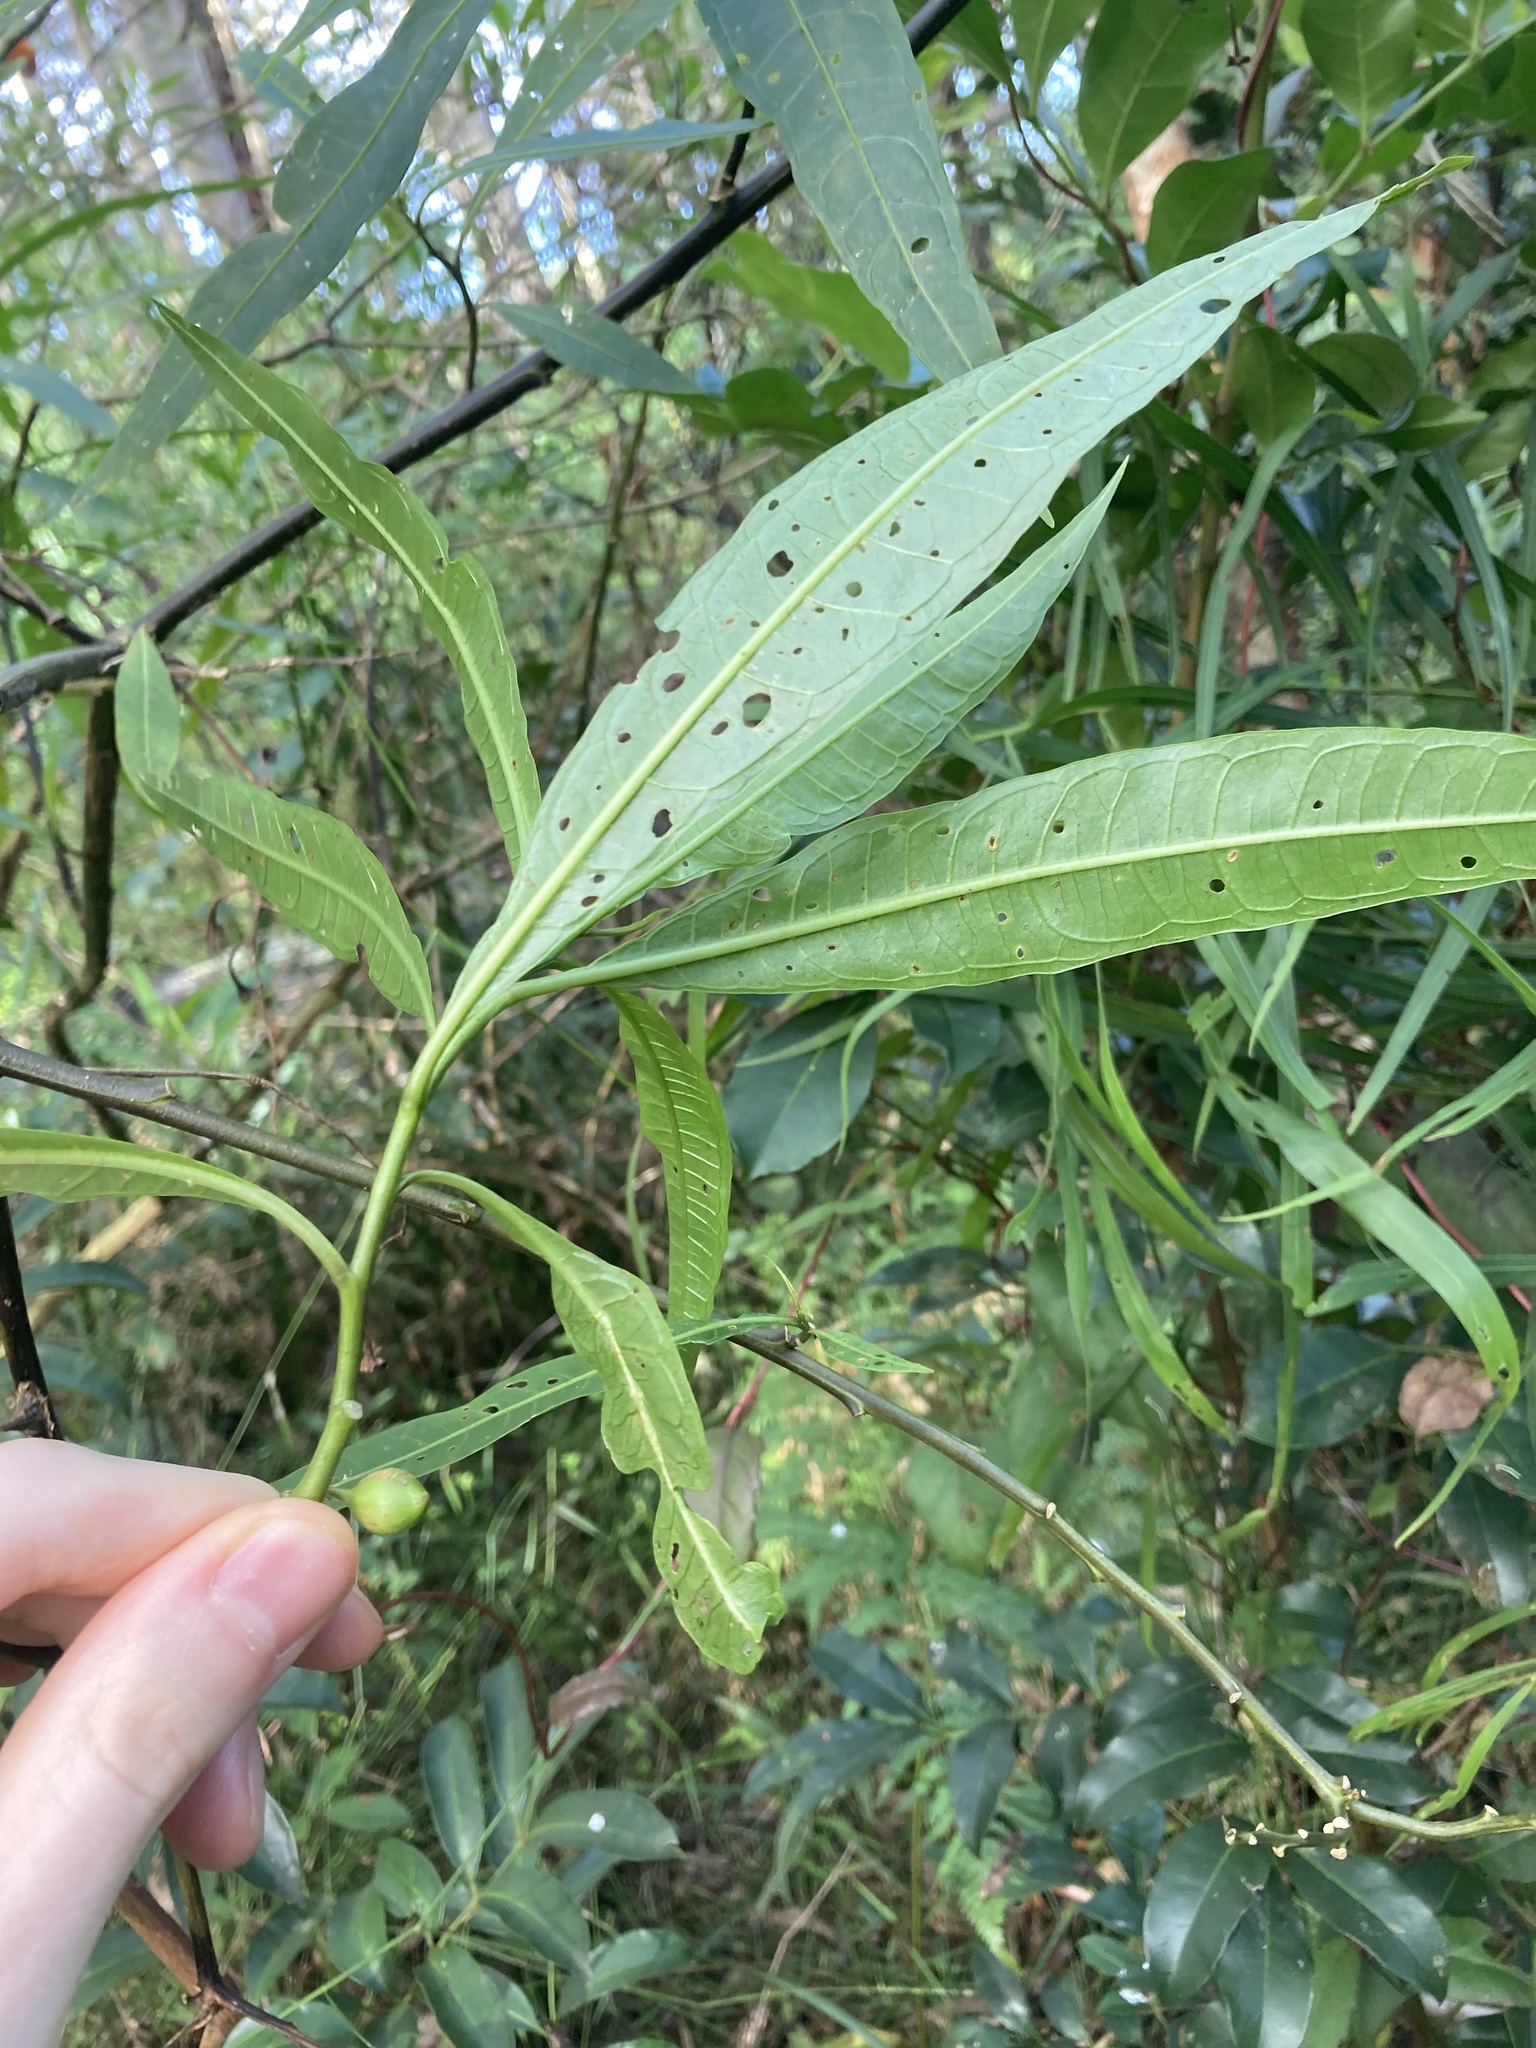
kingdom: Plantae
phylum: Tracheophyta
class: Magnoliopsida
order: Solanales
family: Solanaceae
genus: Solanum
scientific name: Solanum aviculare
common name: New zealand nightshade
